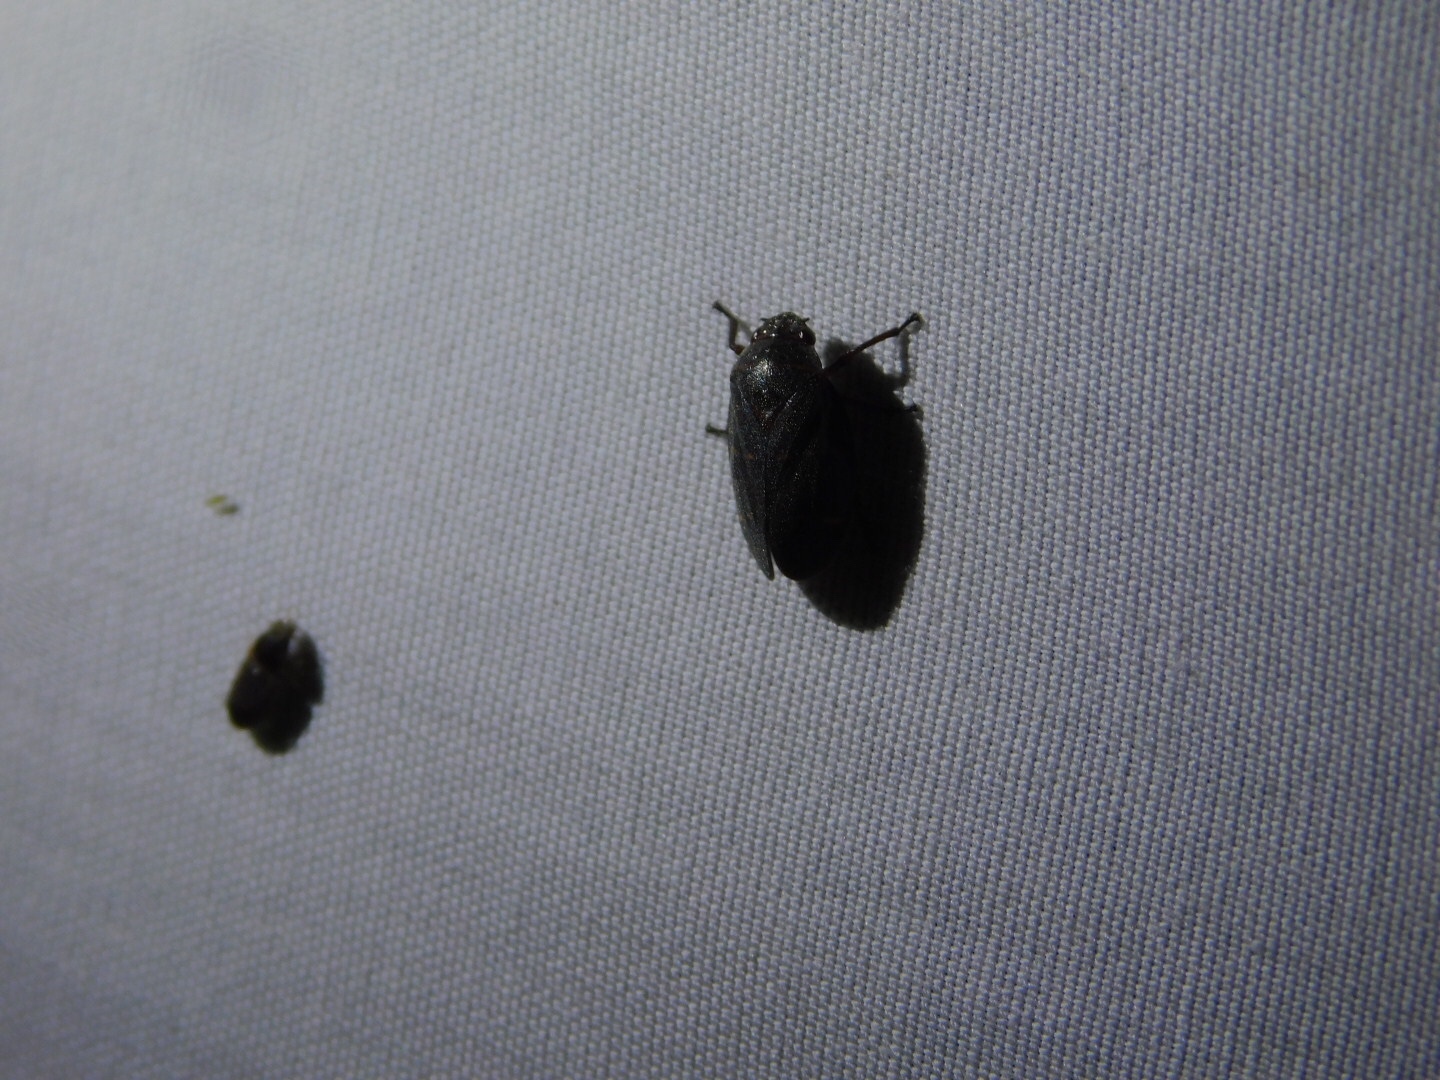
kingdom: Animalia
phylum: Arthropoda
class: Insecta
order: Hemiptera
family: Cercopidae
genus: Prosapia
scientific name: Prosapia bicincta
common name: Twolined spittlebug
